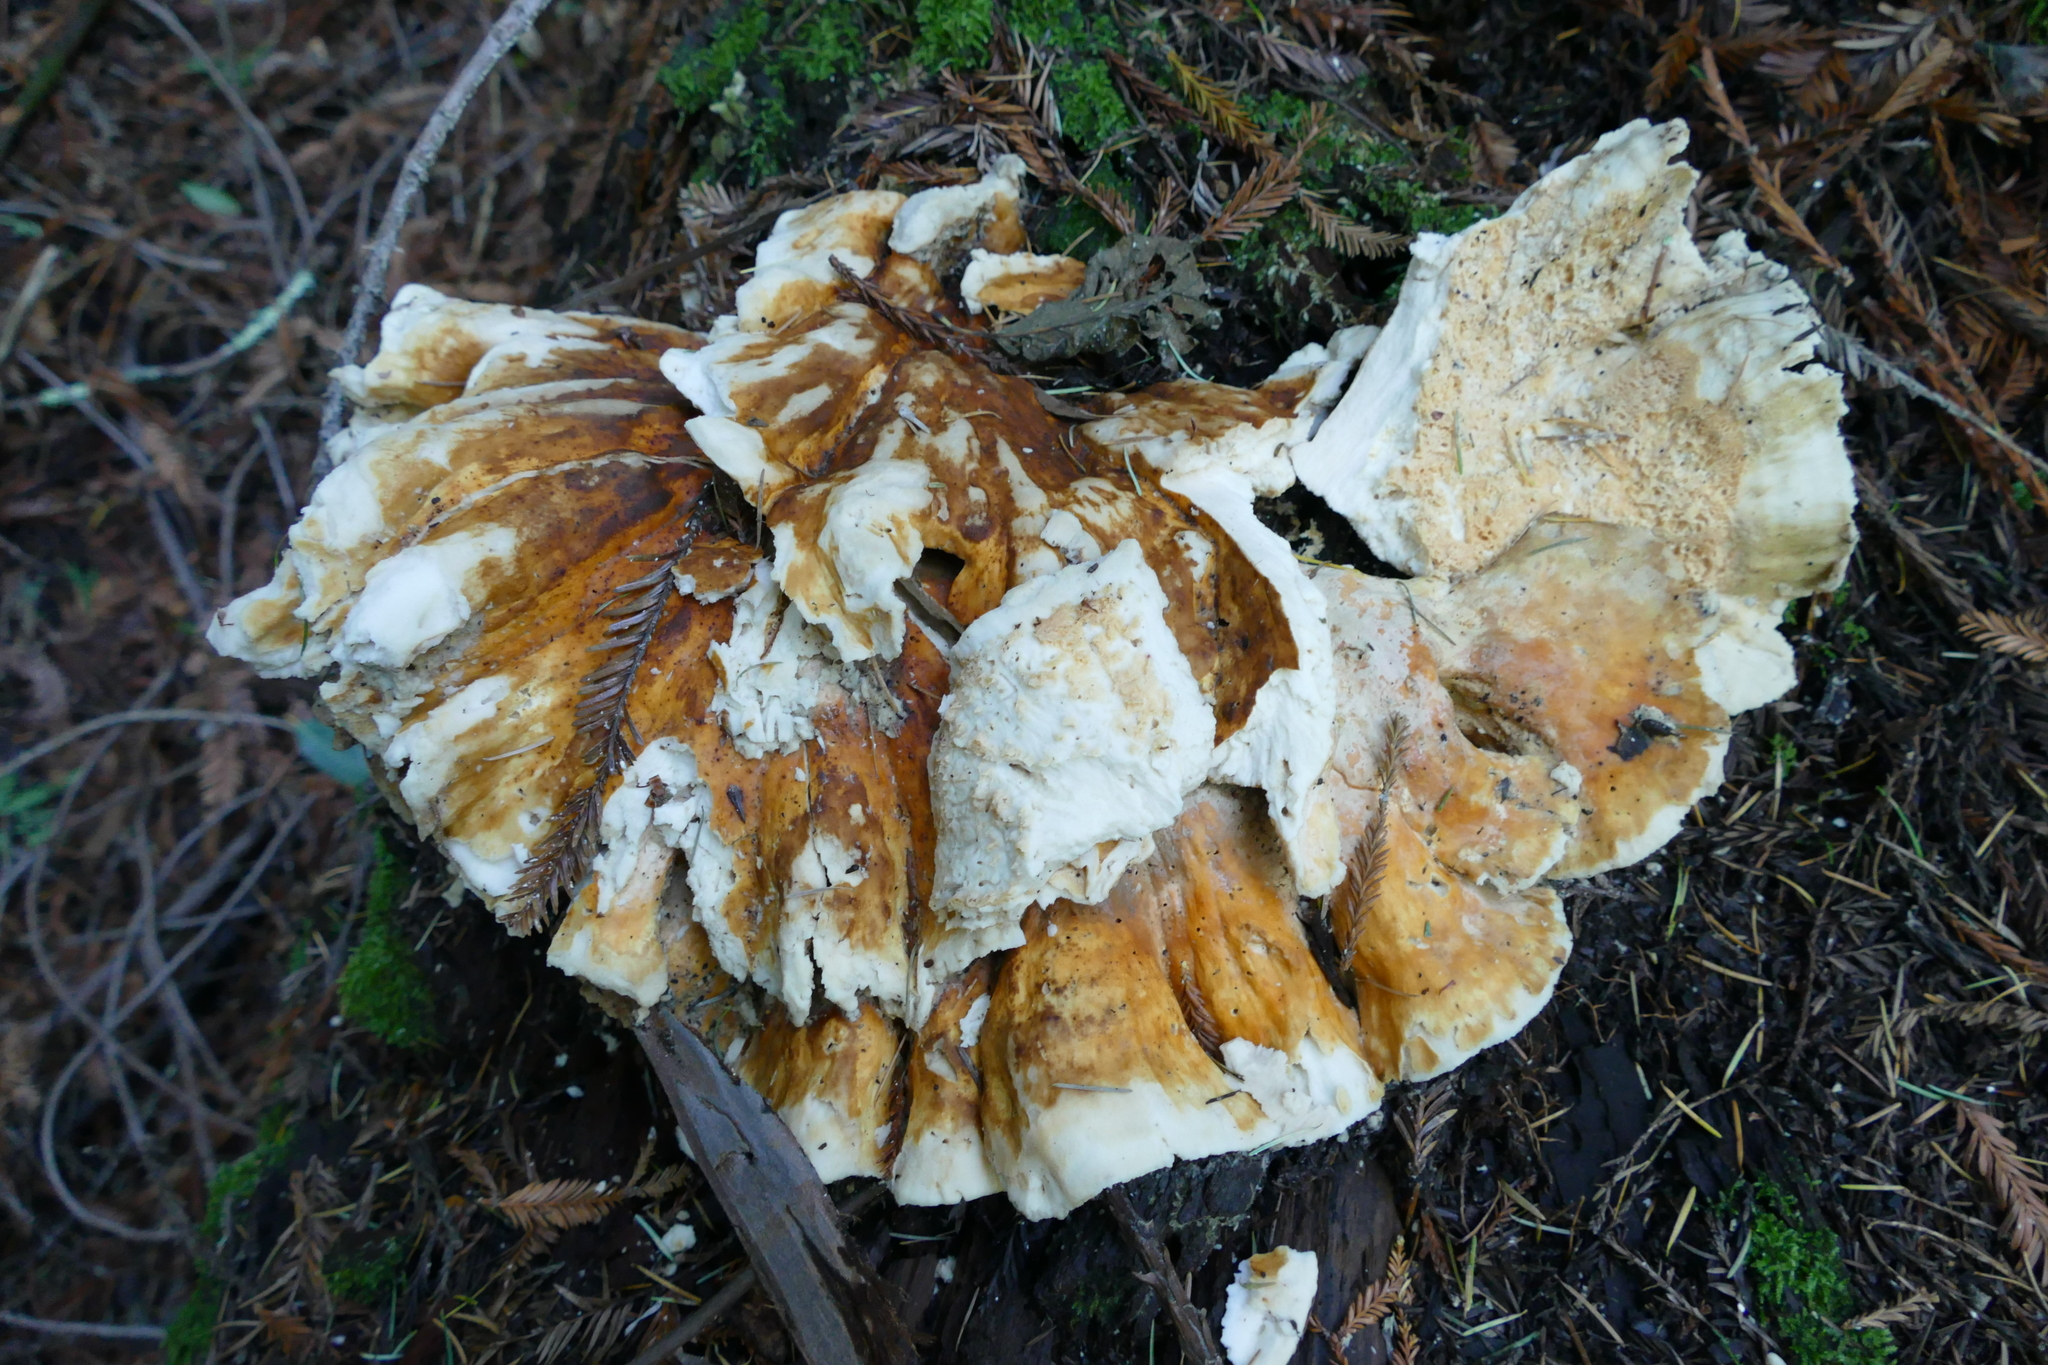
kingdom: Fungi
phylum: Basidiomycota
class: Agaricomycetes
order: Polyporales
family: Laetiporaceae
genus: Laetiporus
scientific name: Laetiporus conifericola
